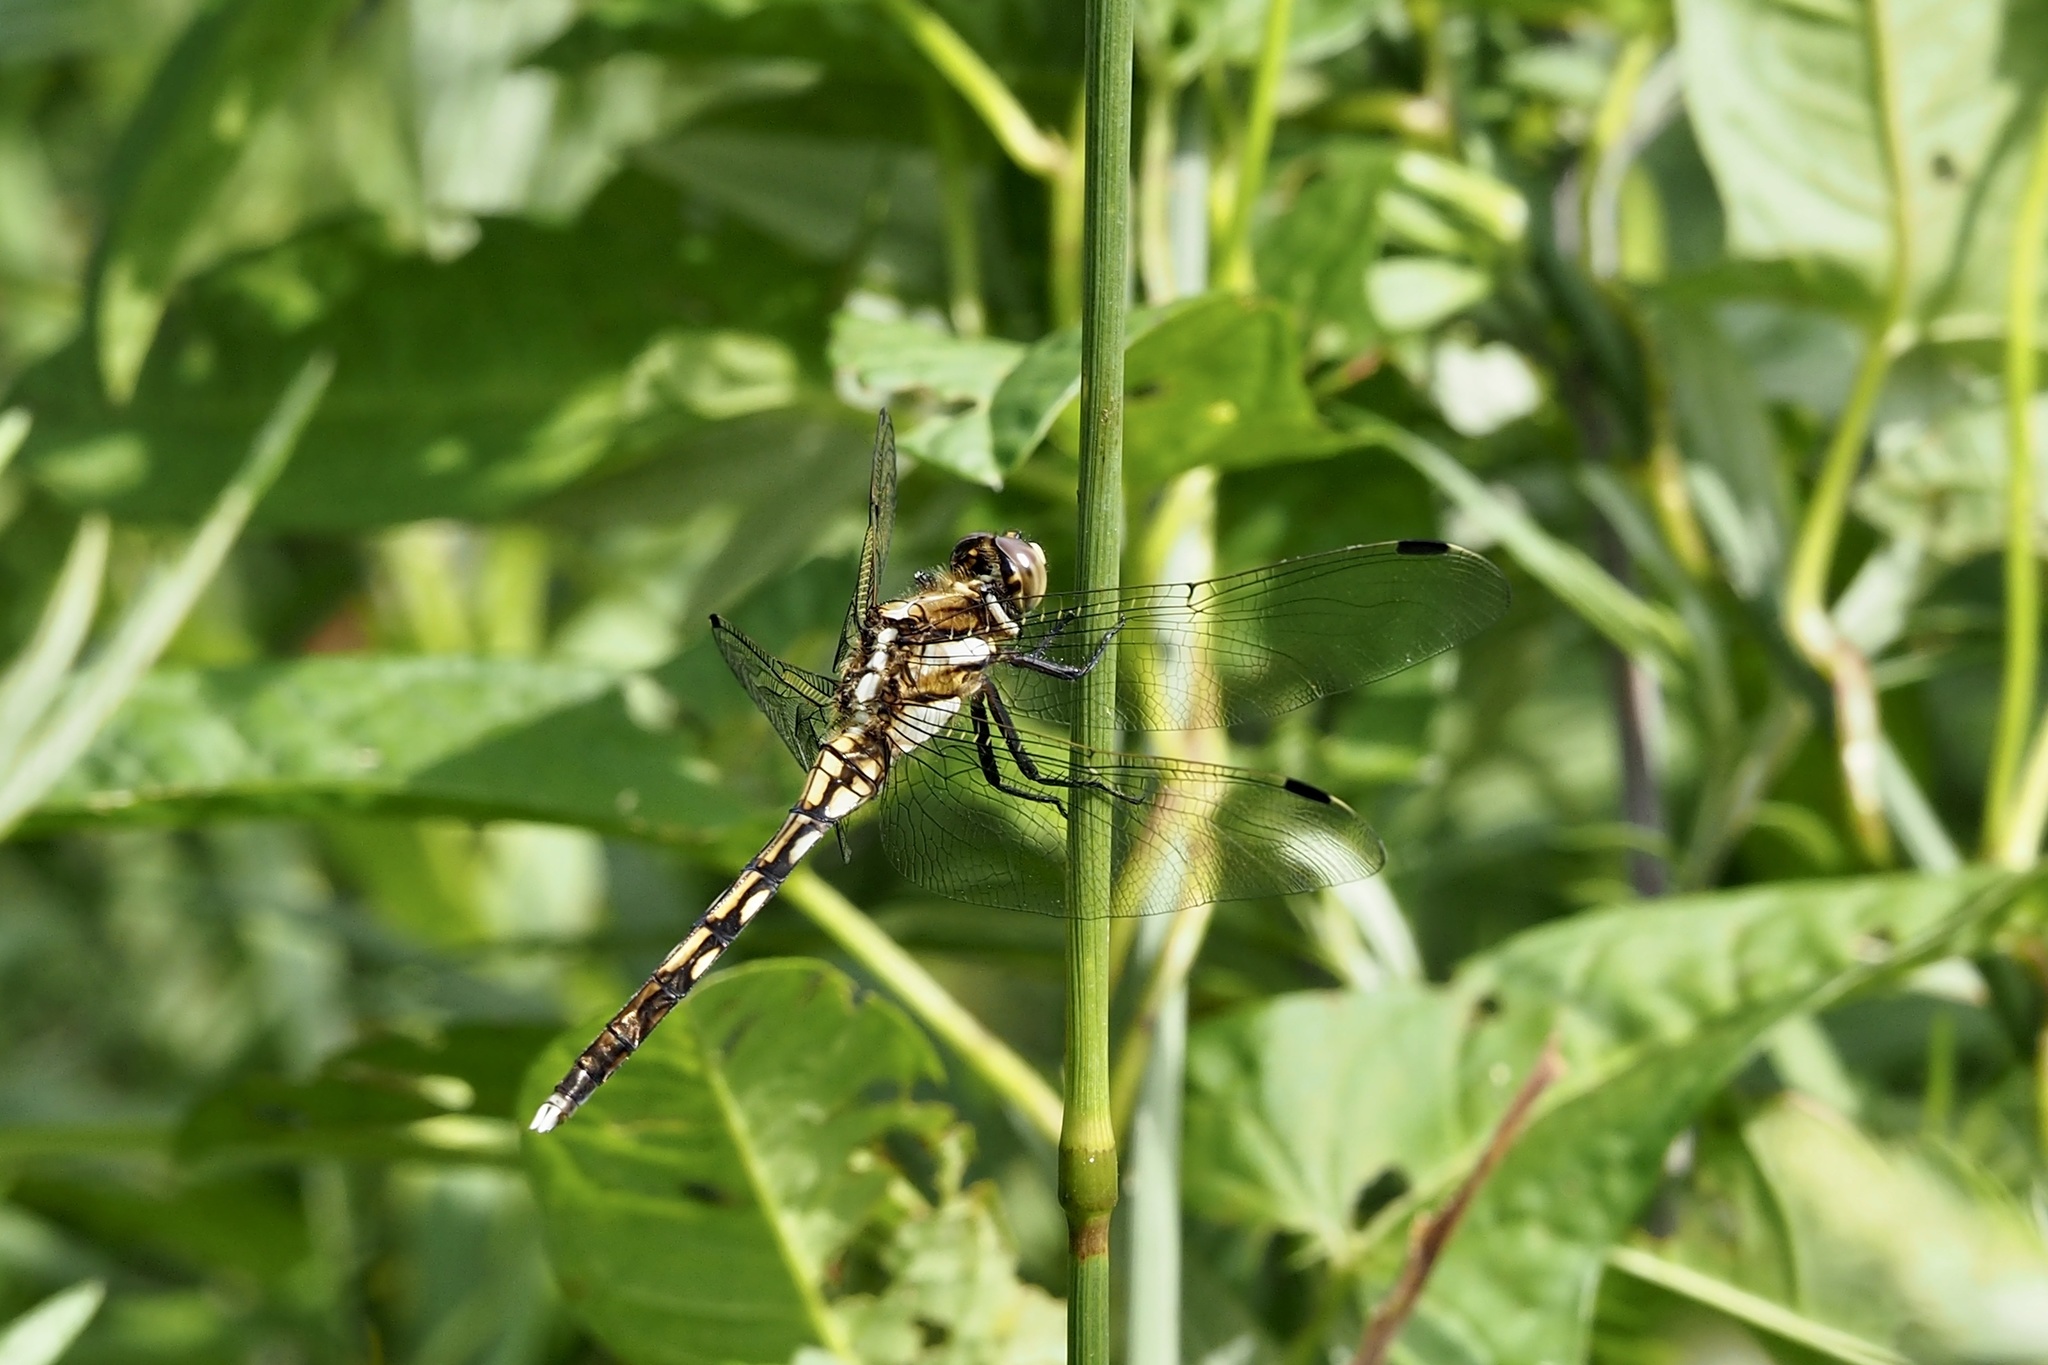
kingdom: Animalia
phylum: Arthropoda
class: Insecta
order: Odonata
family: Libellulidae
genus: Orthetrum
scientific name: Orthetrum albistylum
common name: White-tailed skimmer
